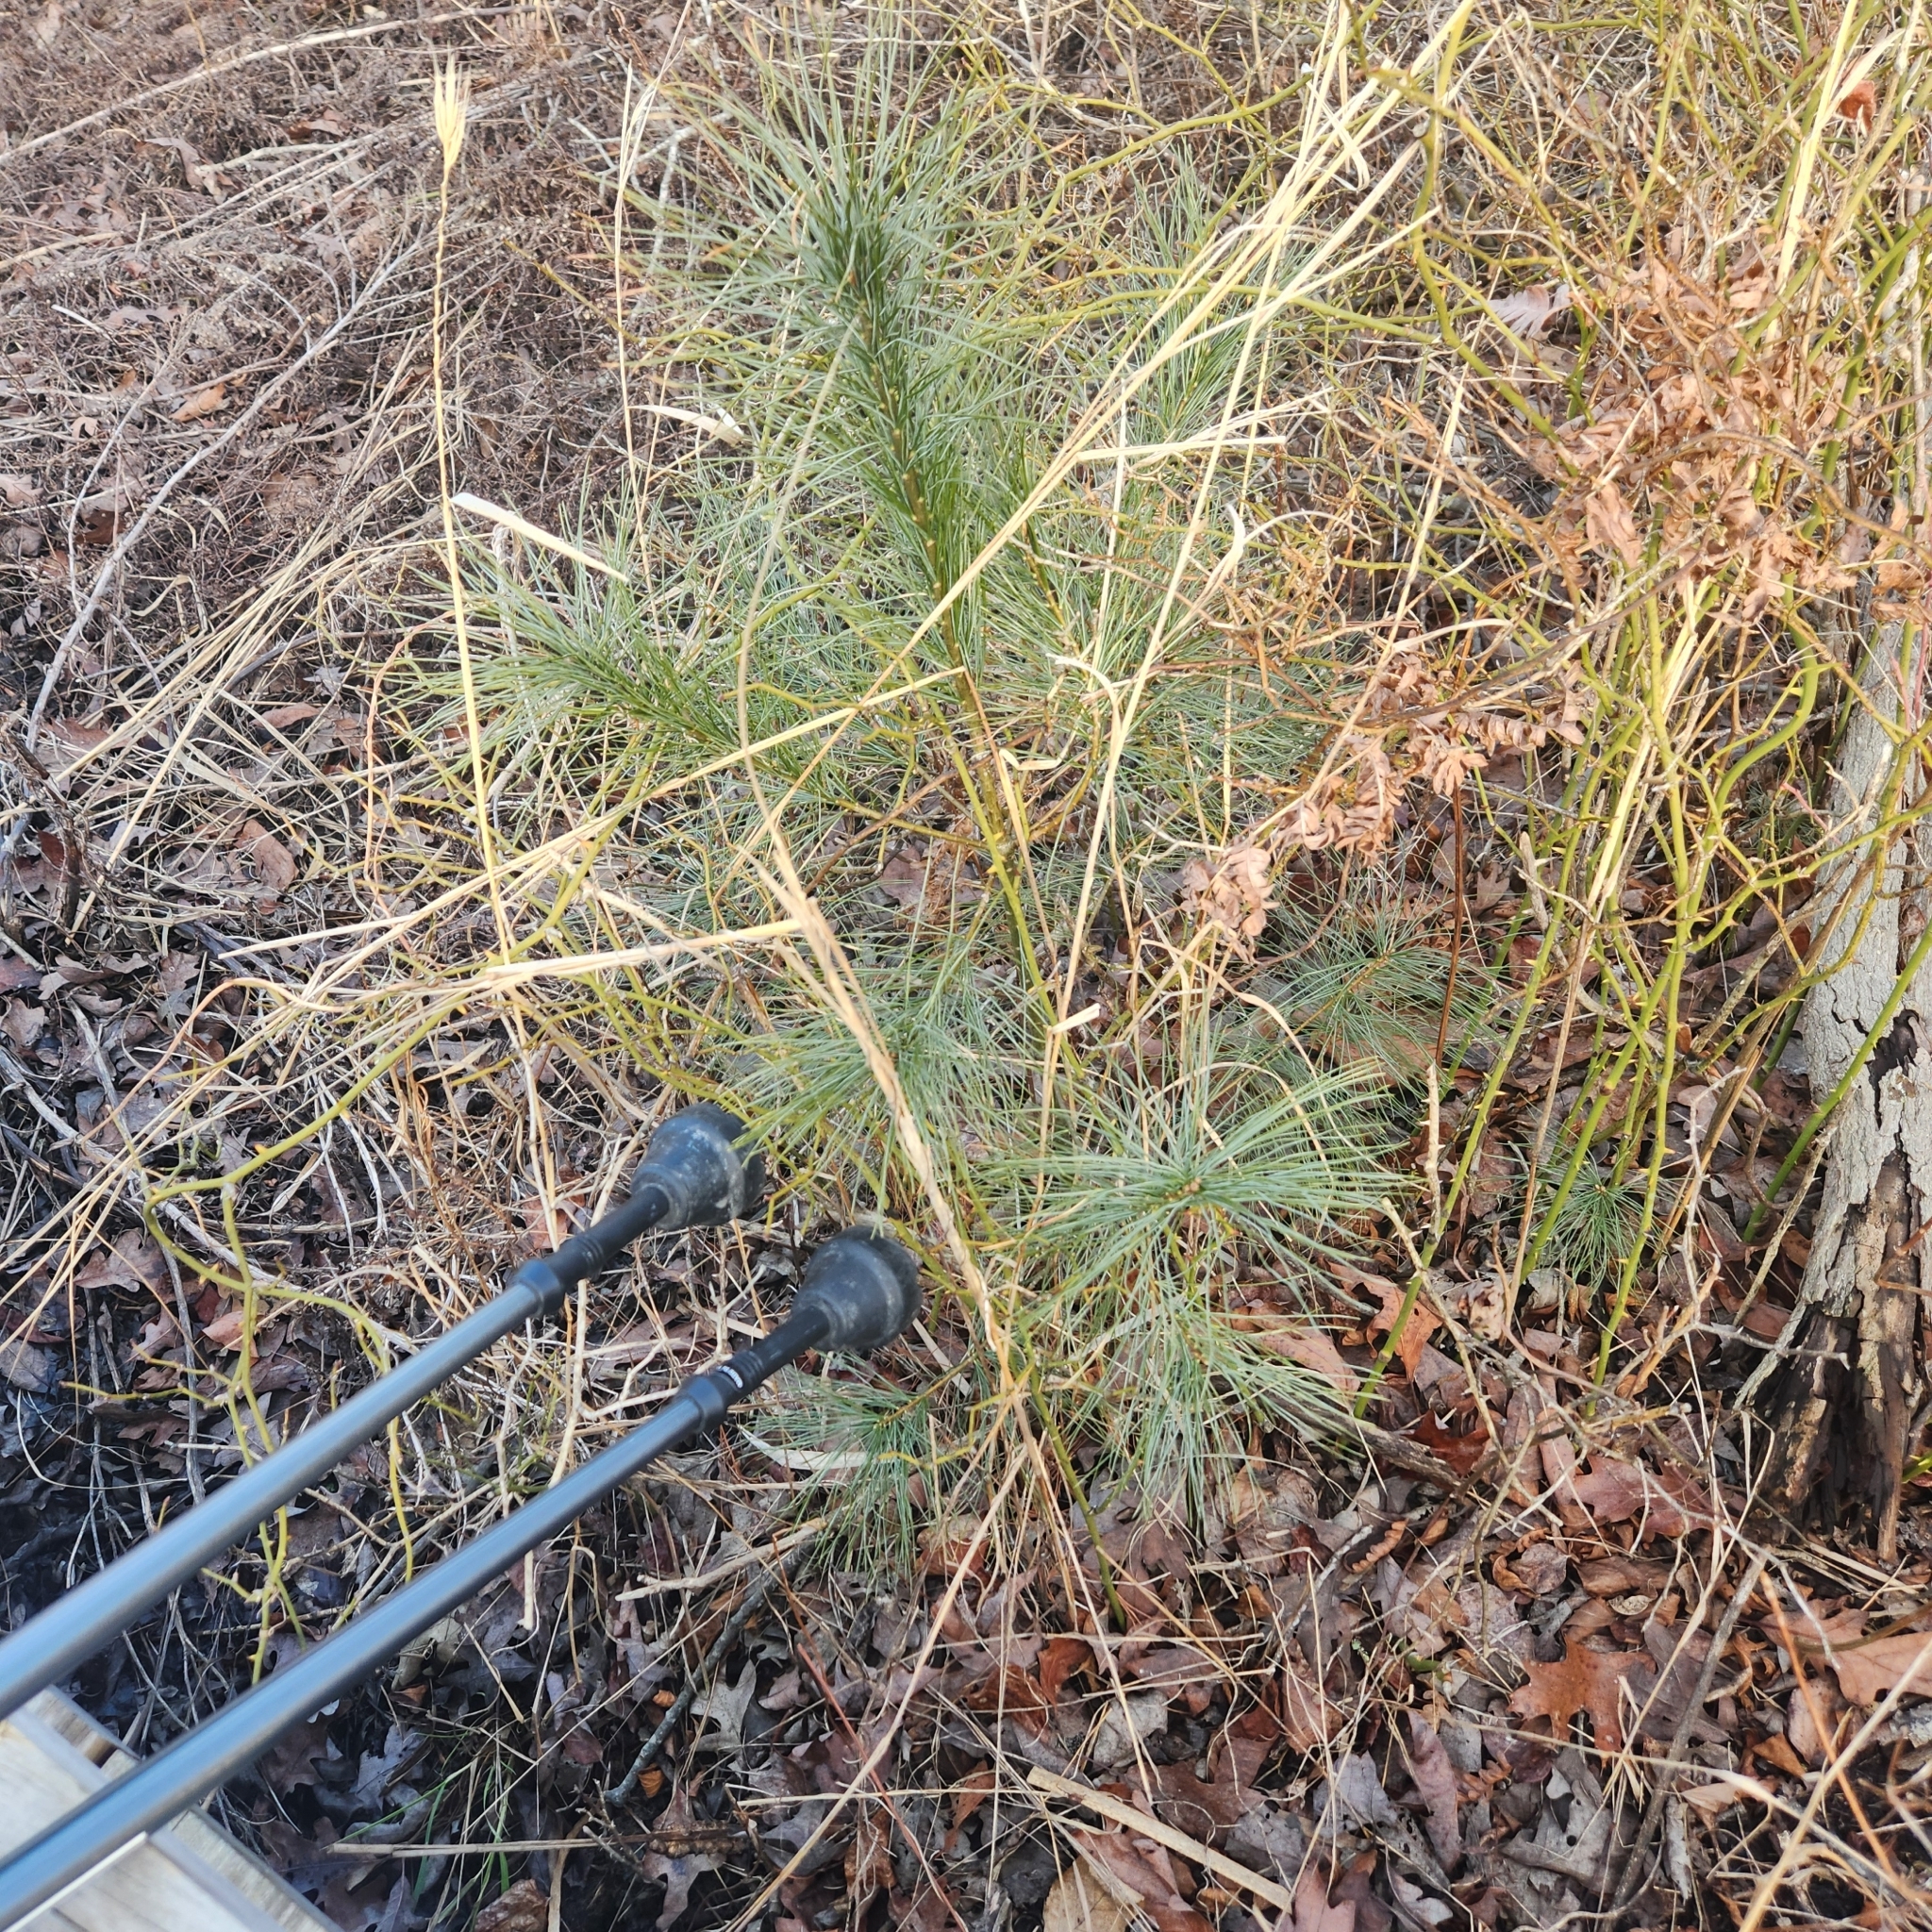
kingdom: Plantae
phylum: Tracheophyta
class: Pinopsida
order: Pinales
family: Pinaceae
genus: Pinus
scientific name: Pinus strobus
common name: Weymouth pine
